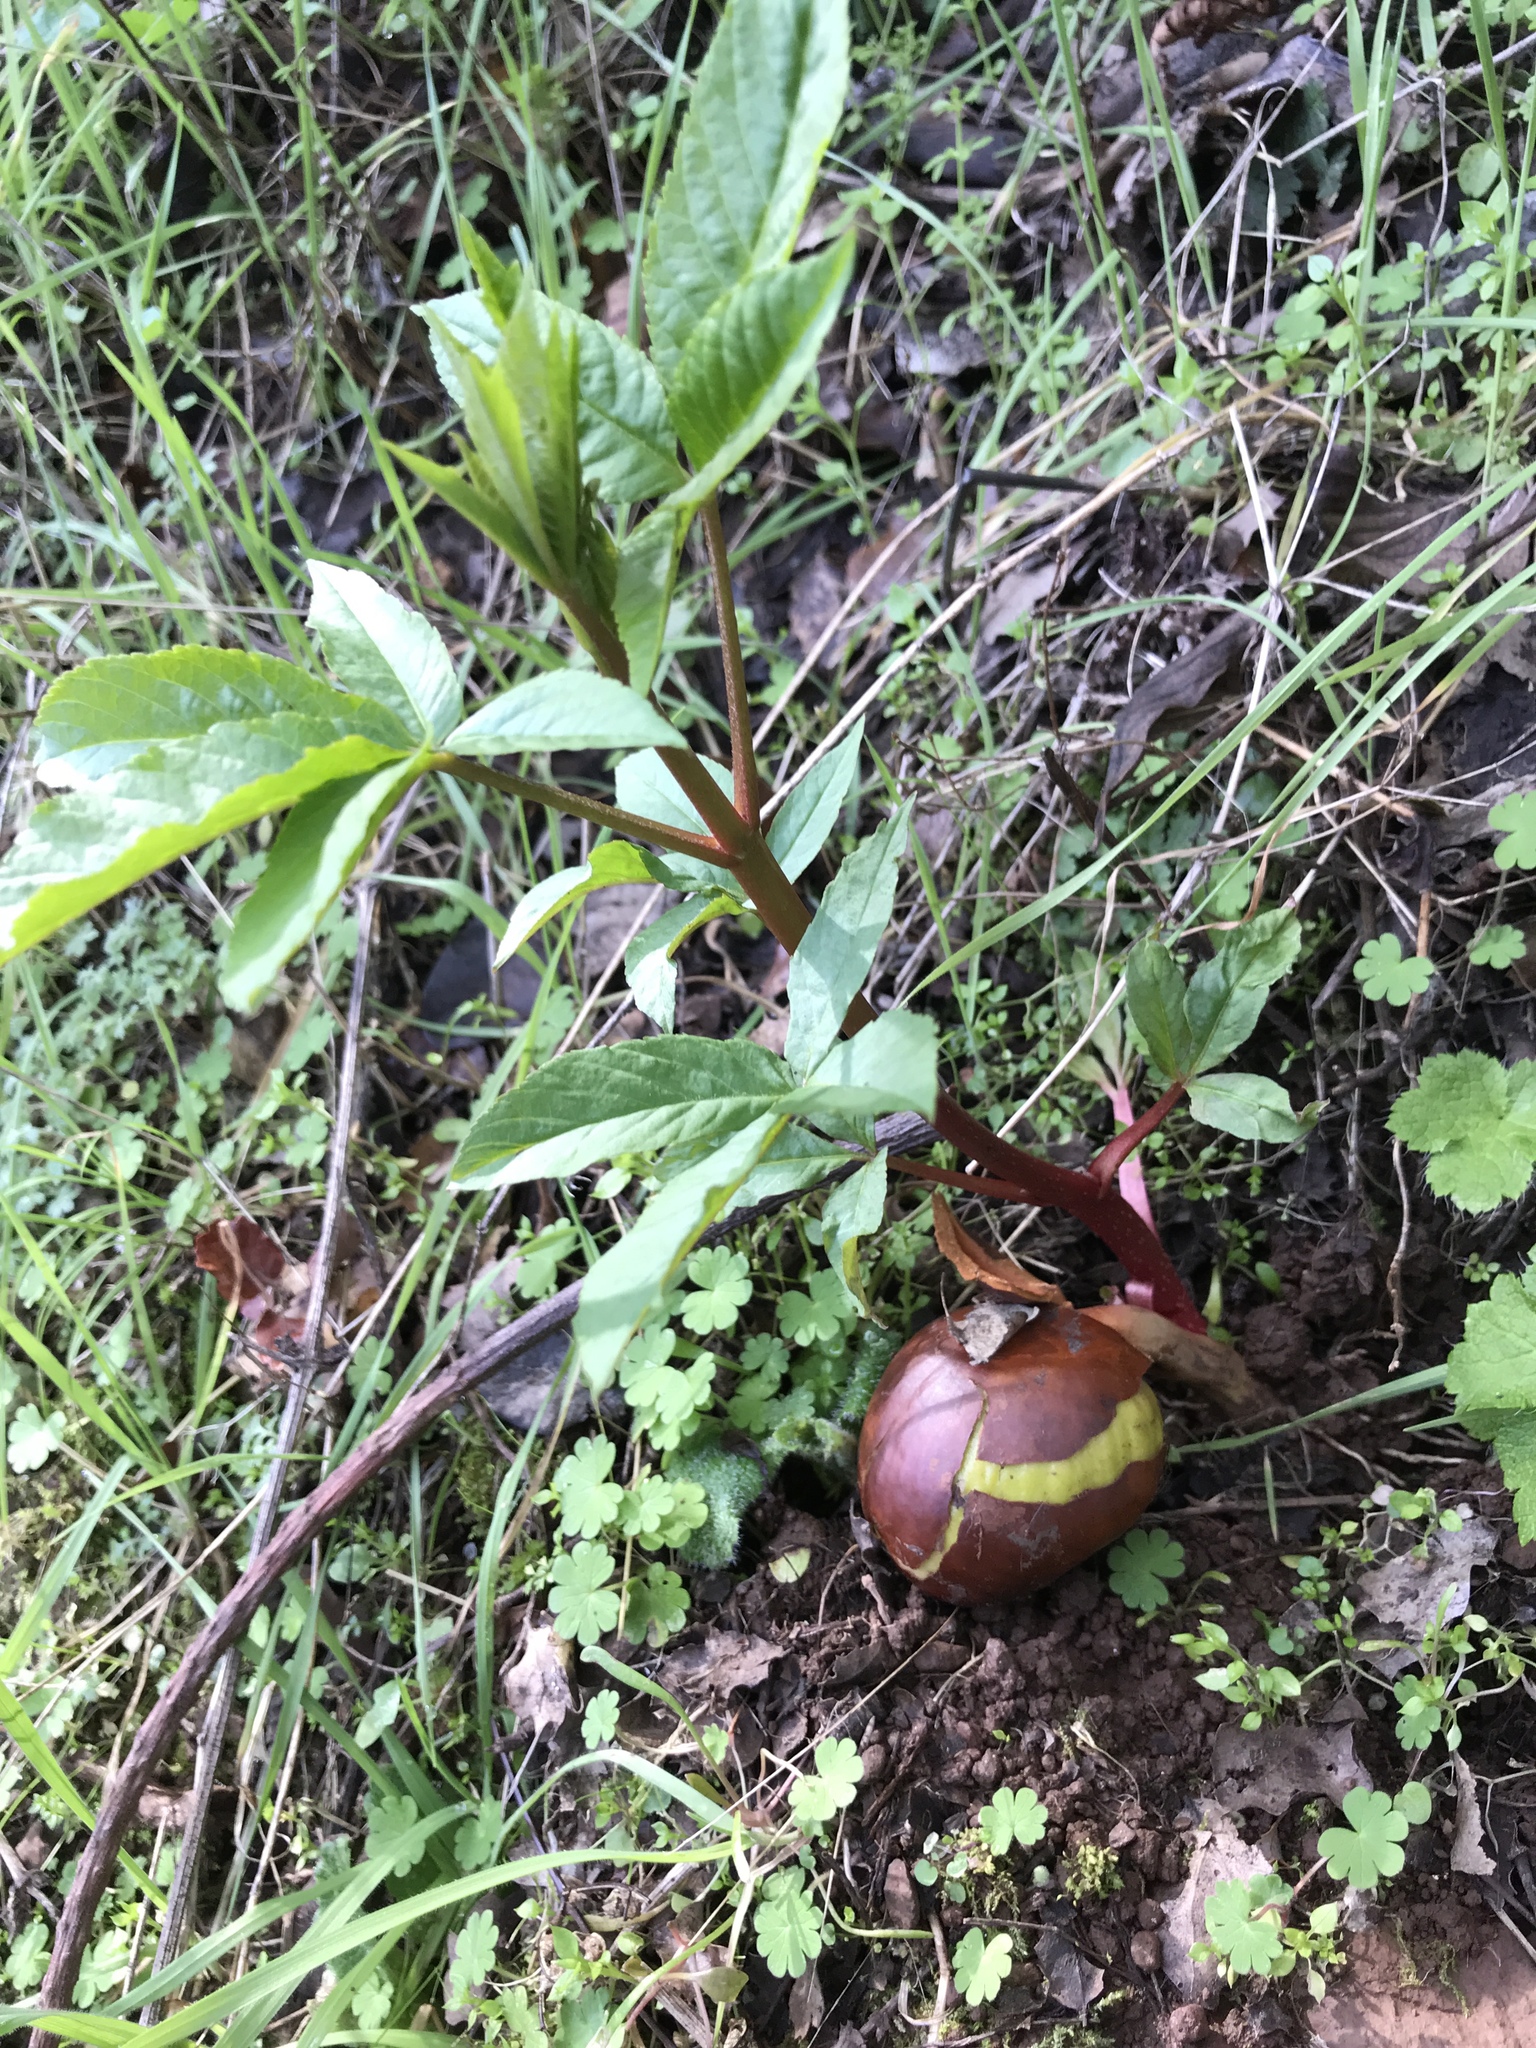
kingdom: Plantae
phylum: Tracheophyta
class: Magnoliopsida
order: Sapindales
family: Sapindaceae
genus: Aesculus
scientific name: Aesculus californica
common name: California buckeye
